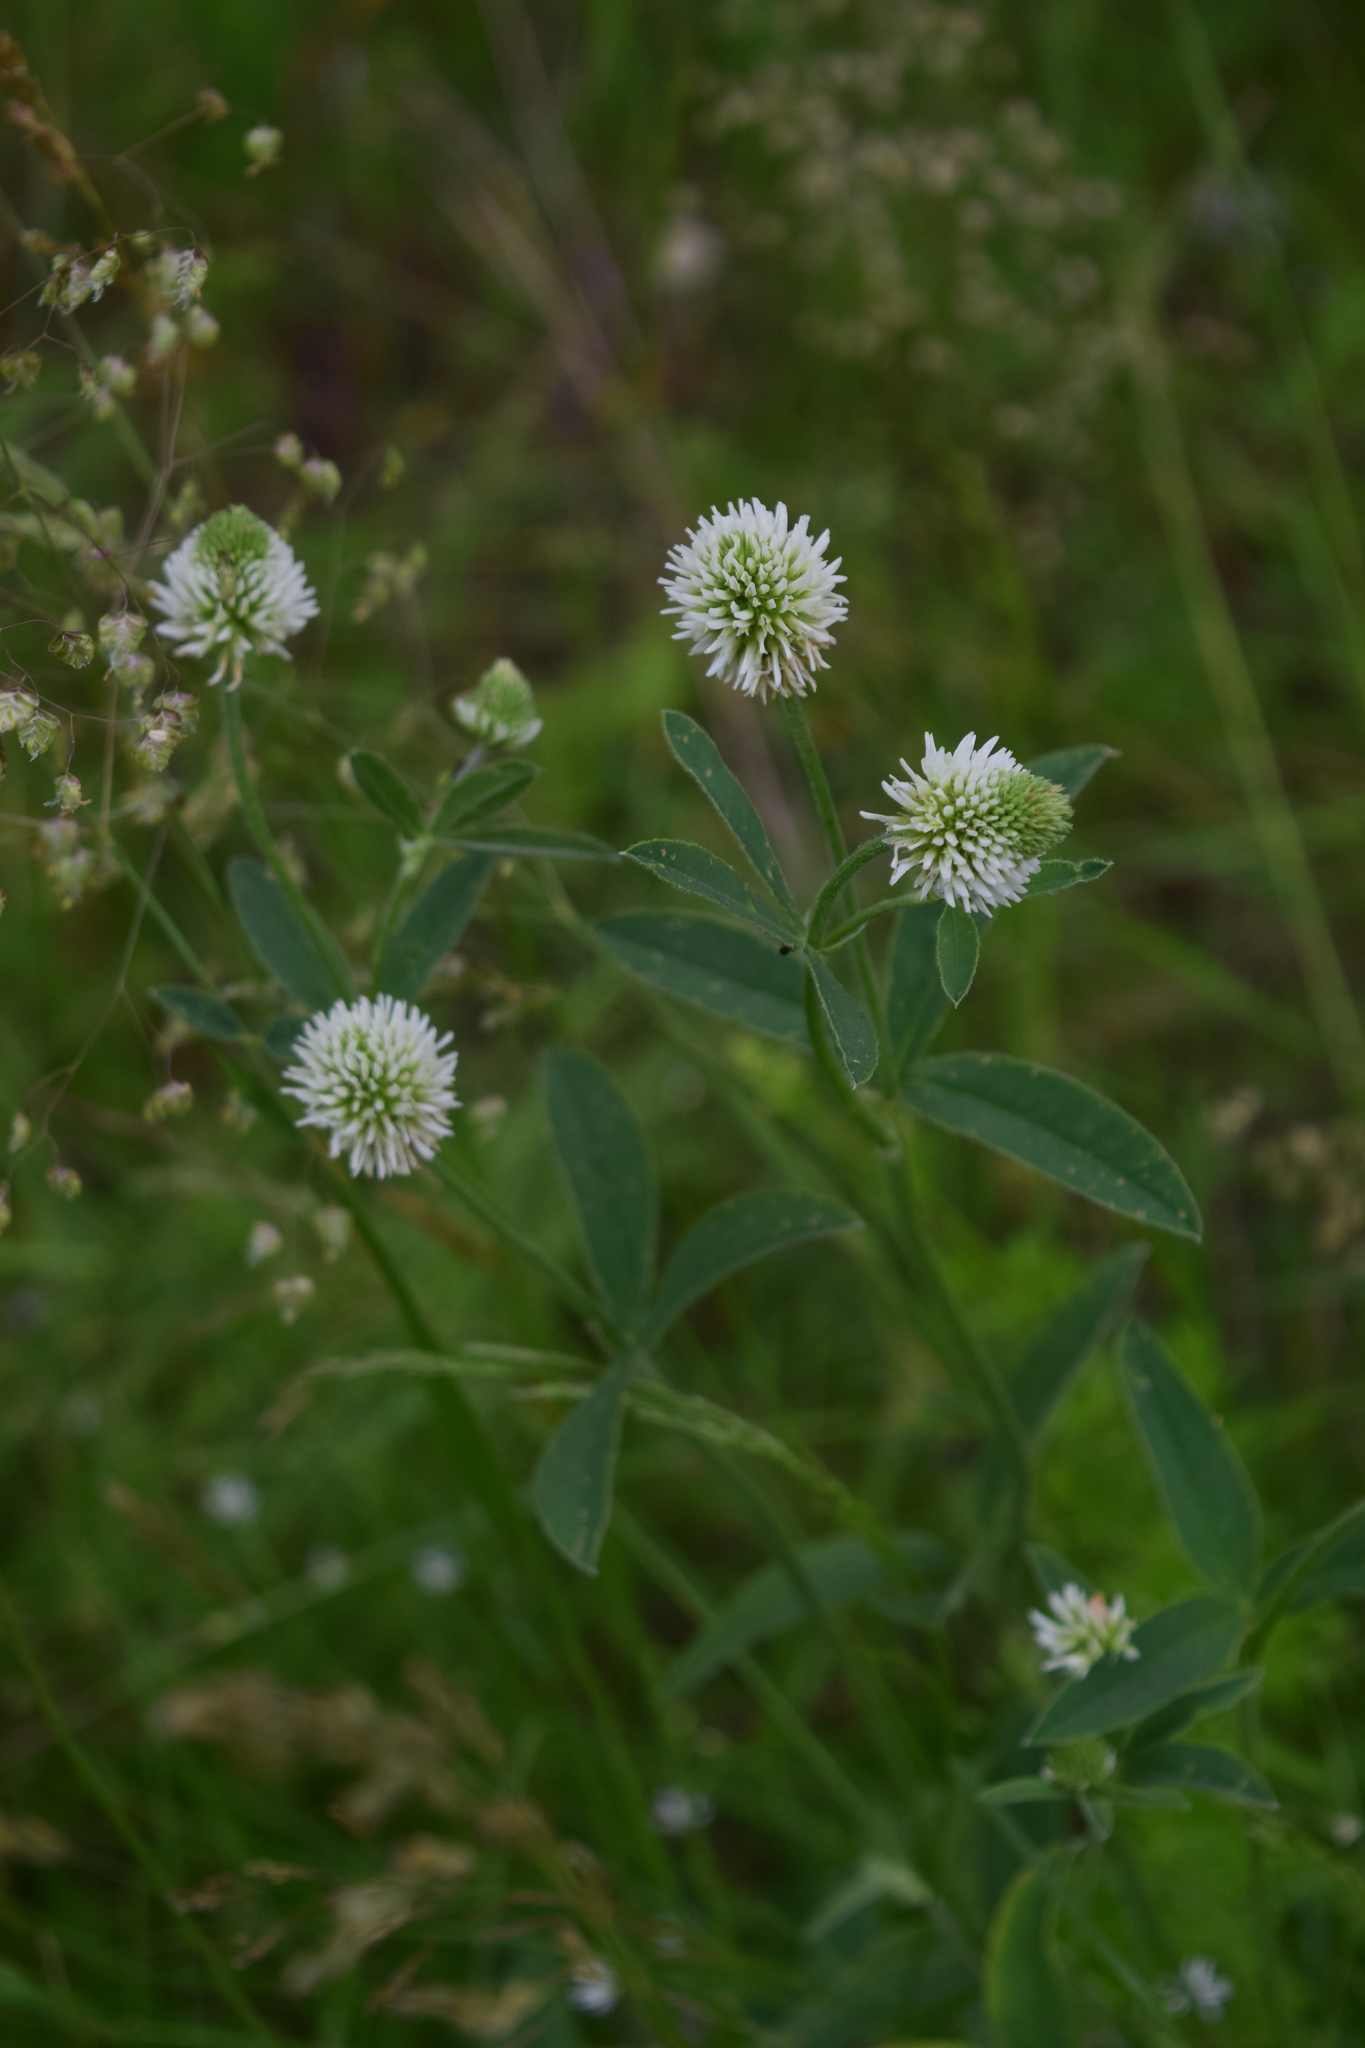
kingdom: Plantae
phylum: Tracheophyta
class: Magnoliopsida
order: Fabales
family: Fabaceae
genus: Trifolium
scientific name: Trifolium montanum
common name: Mountain clover
